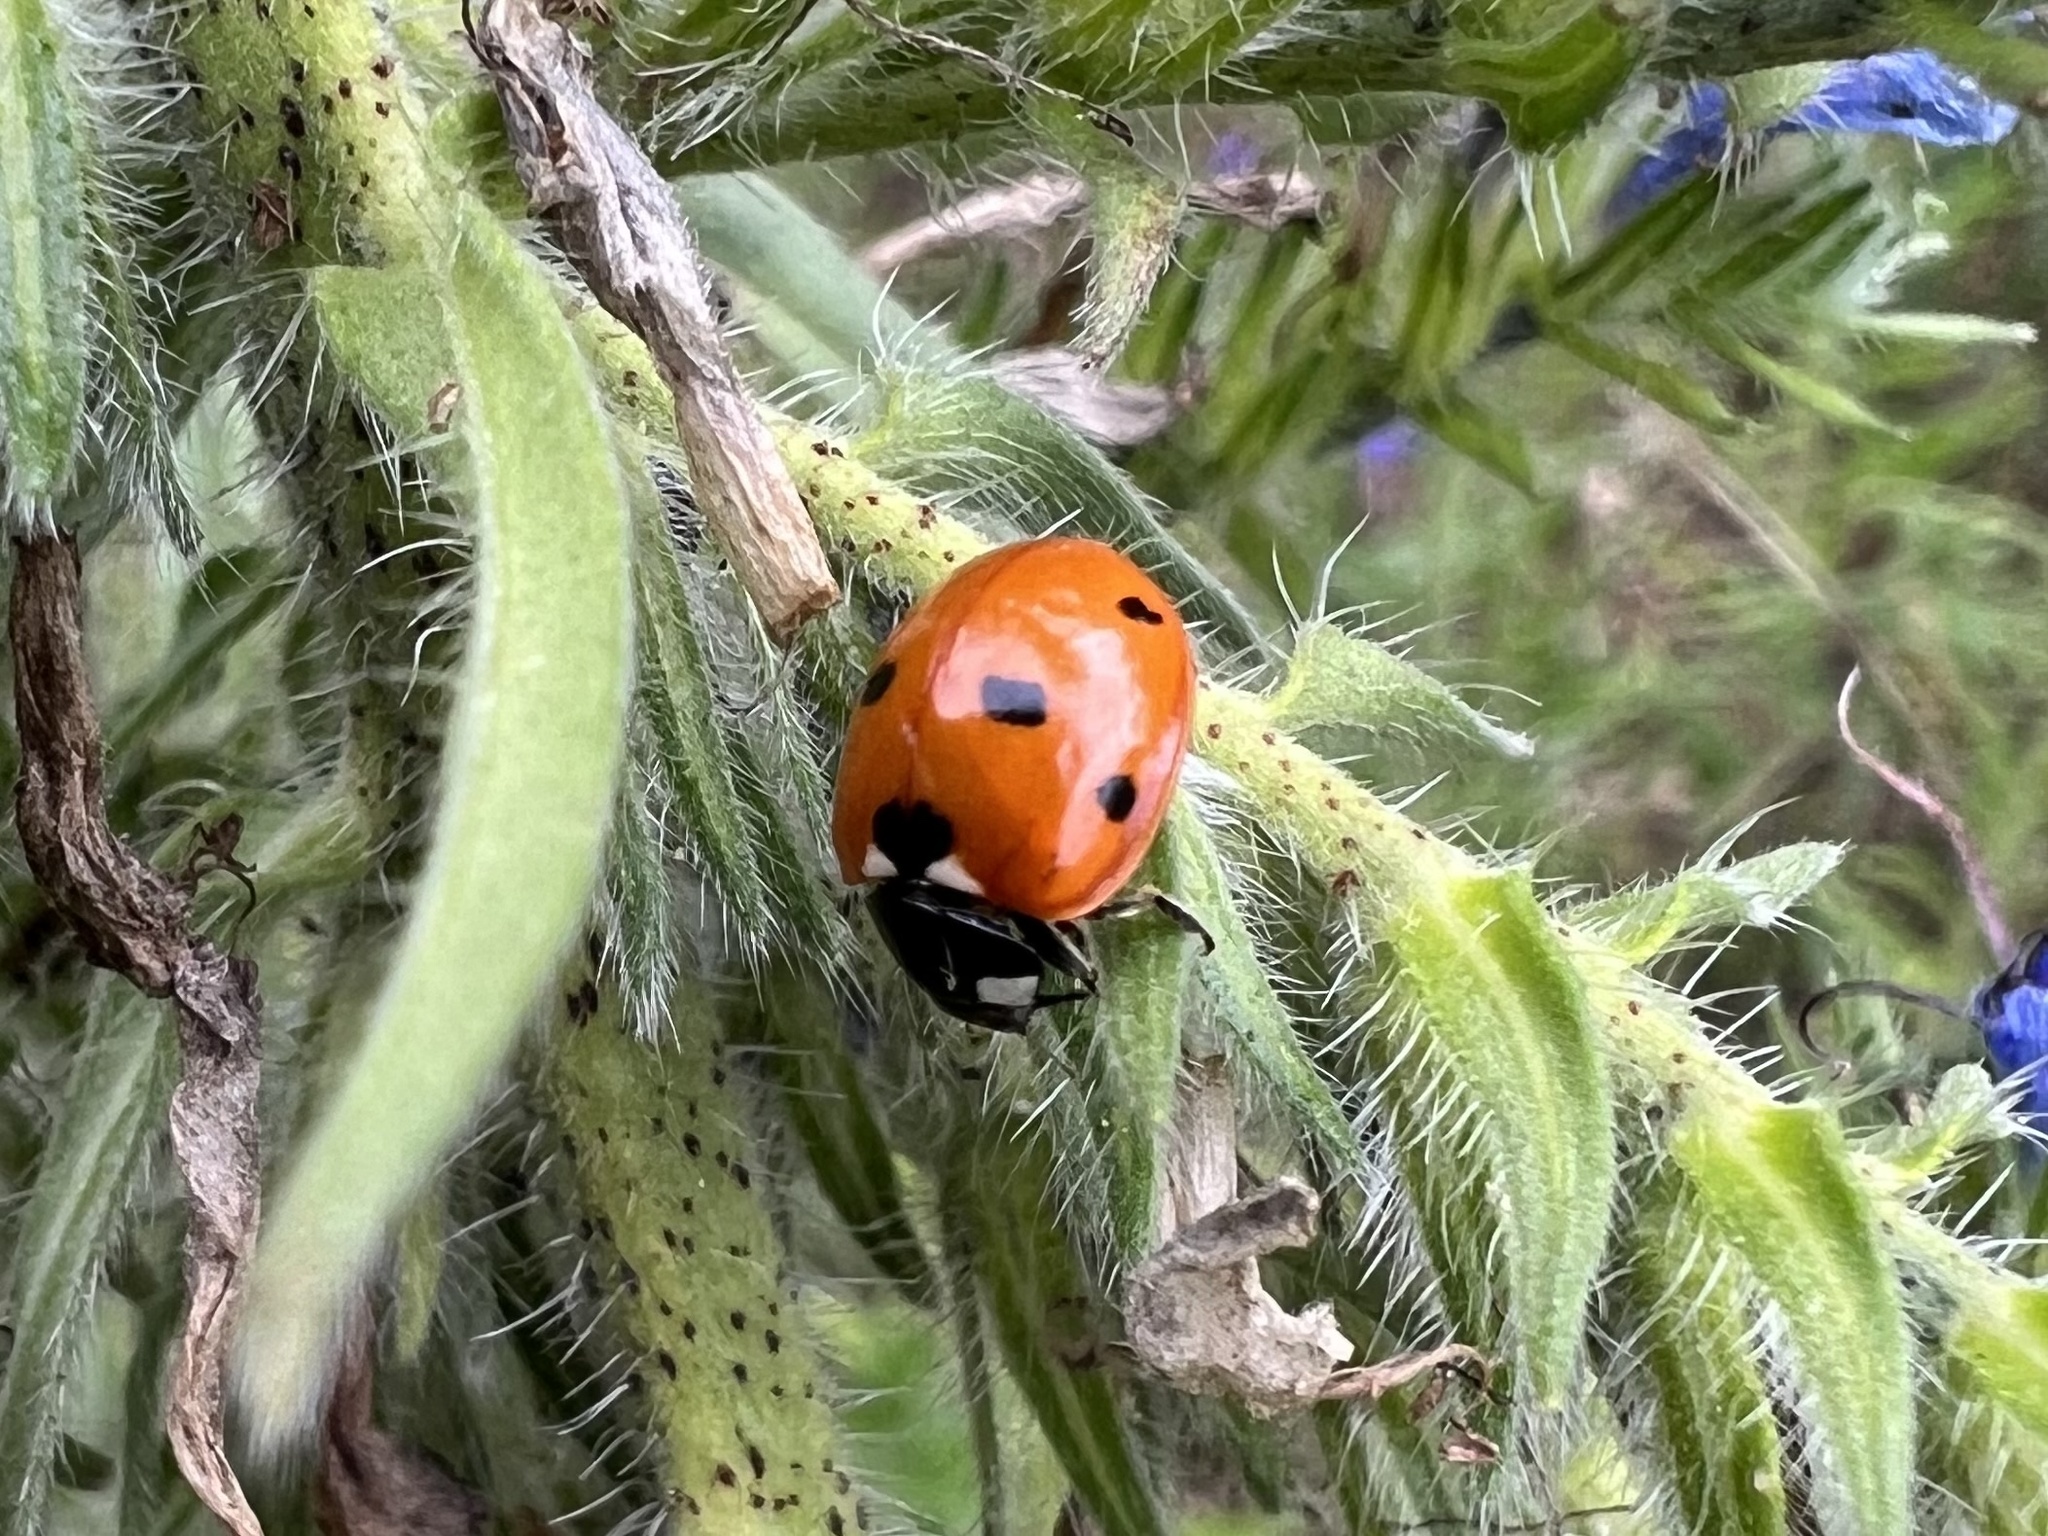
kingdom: Animalia
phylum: Arthropoda
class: Insecta
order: Coleoptera
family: Coccinellidae
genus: Coccinella
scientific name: Coccinella septempunctata
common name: Sevenspotted lady beetle
